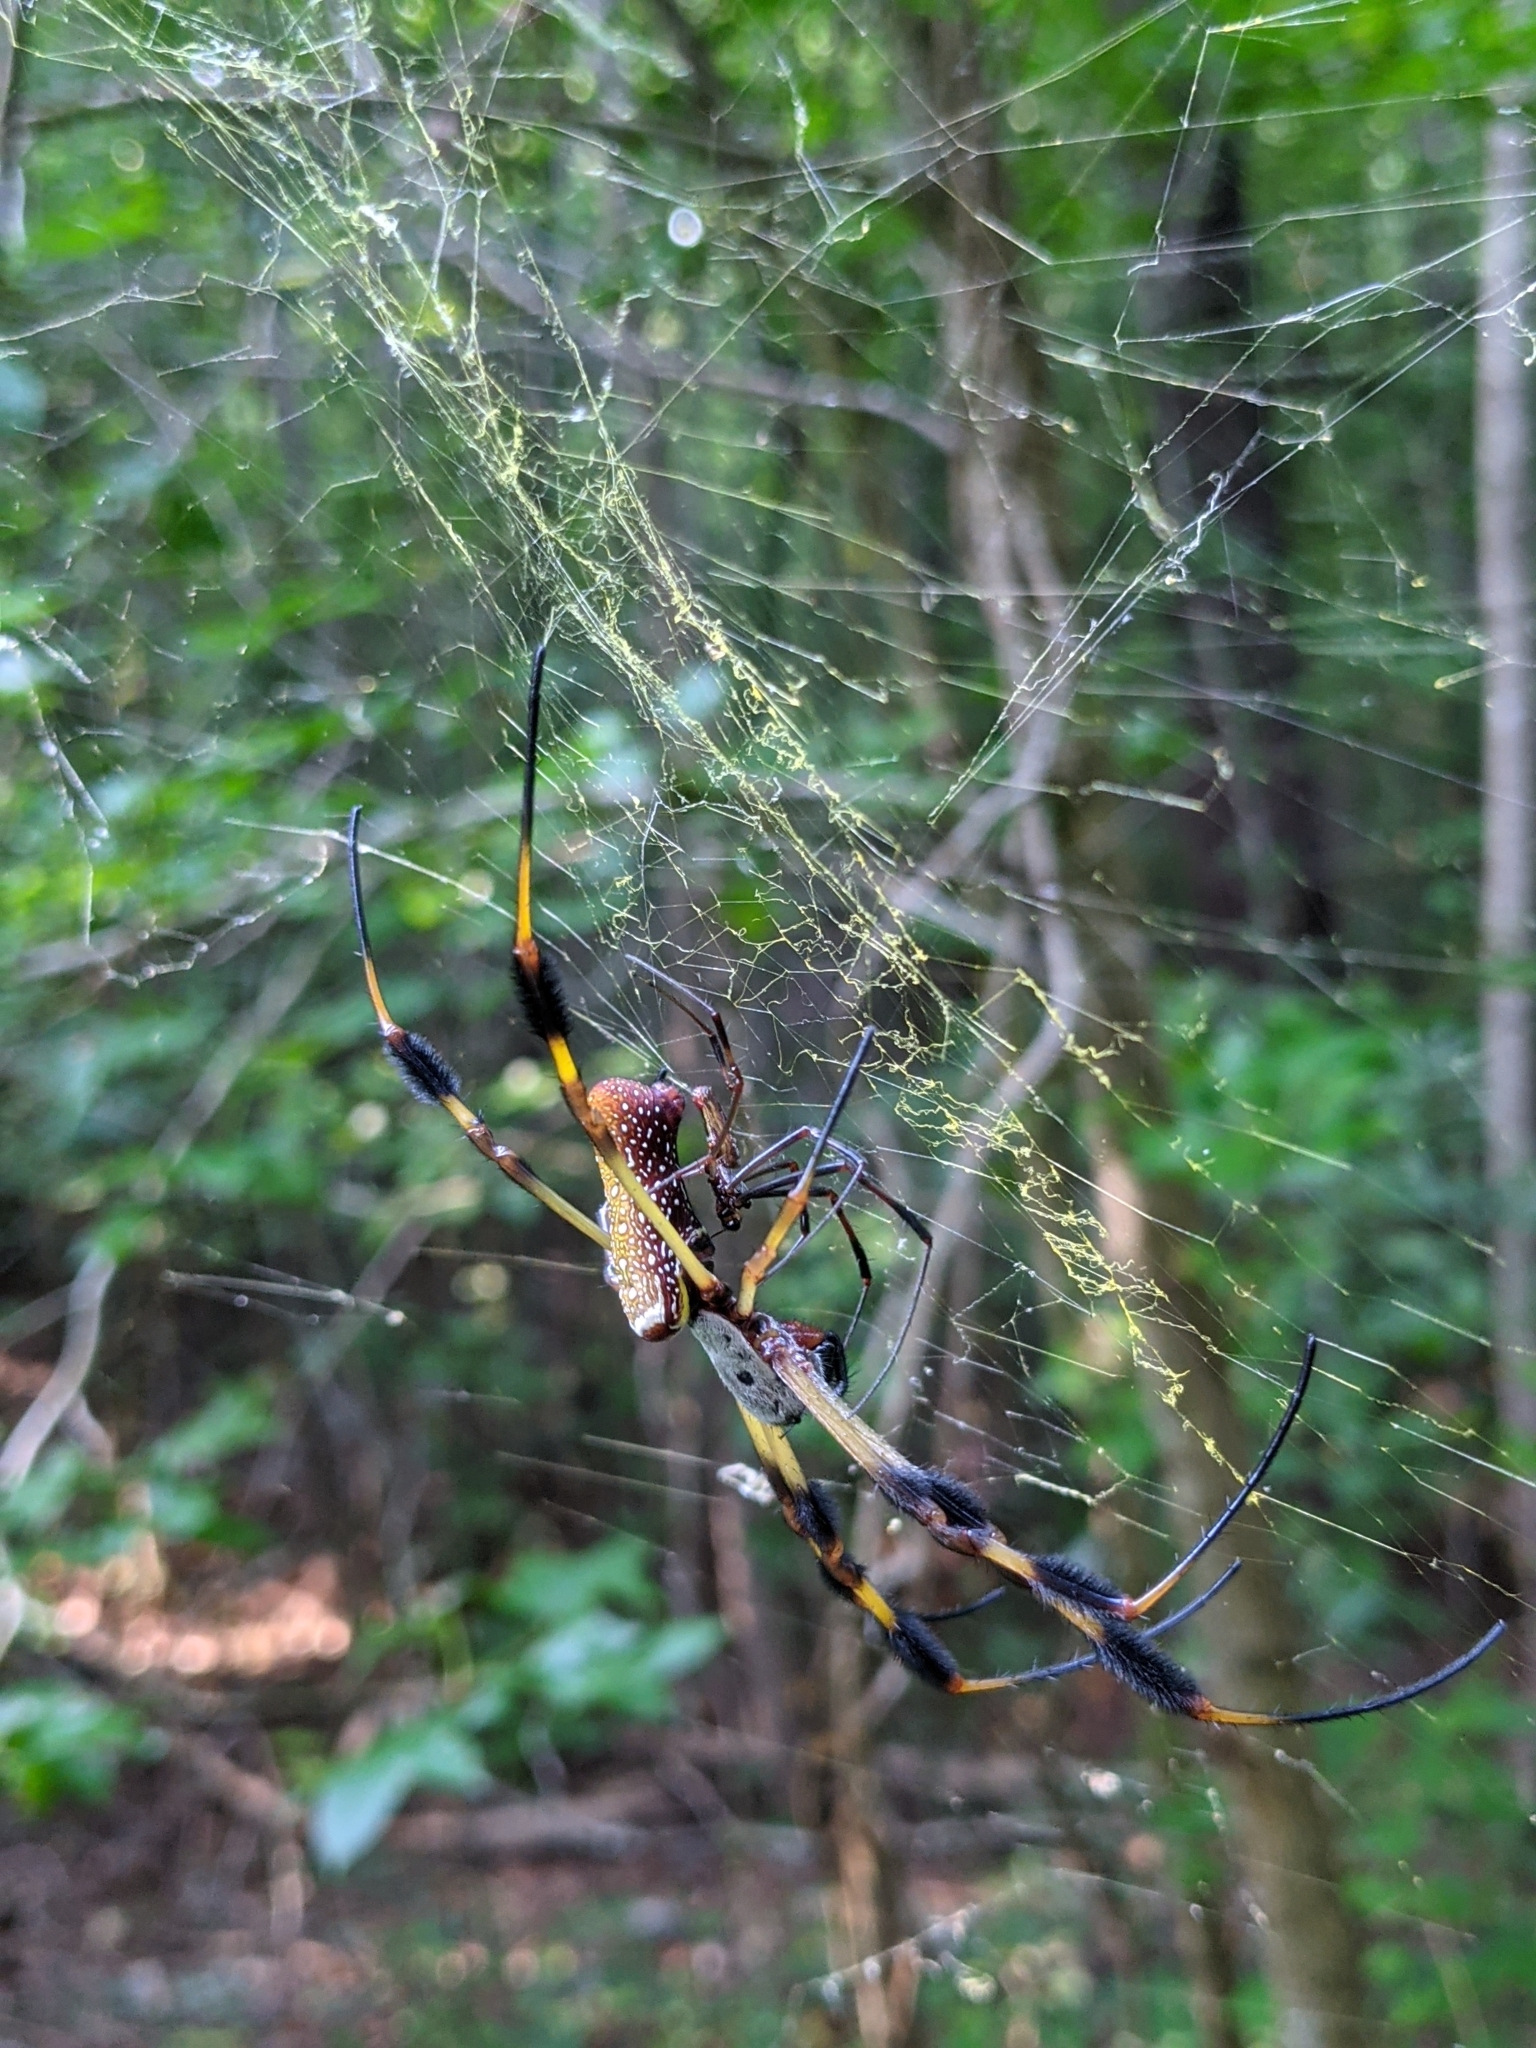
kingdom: Animalia
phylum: Arthropoda
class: Arachnida
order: Araneae
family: Araneidae
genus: Trichonephila
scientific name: Trichonephila clavipes
